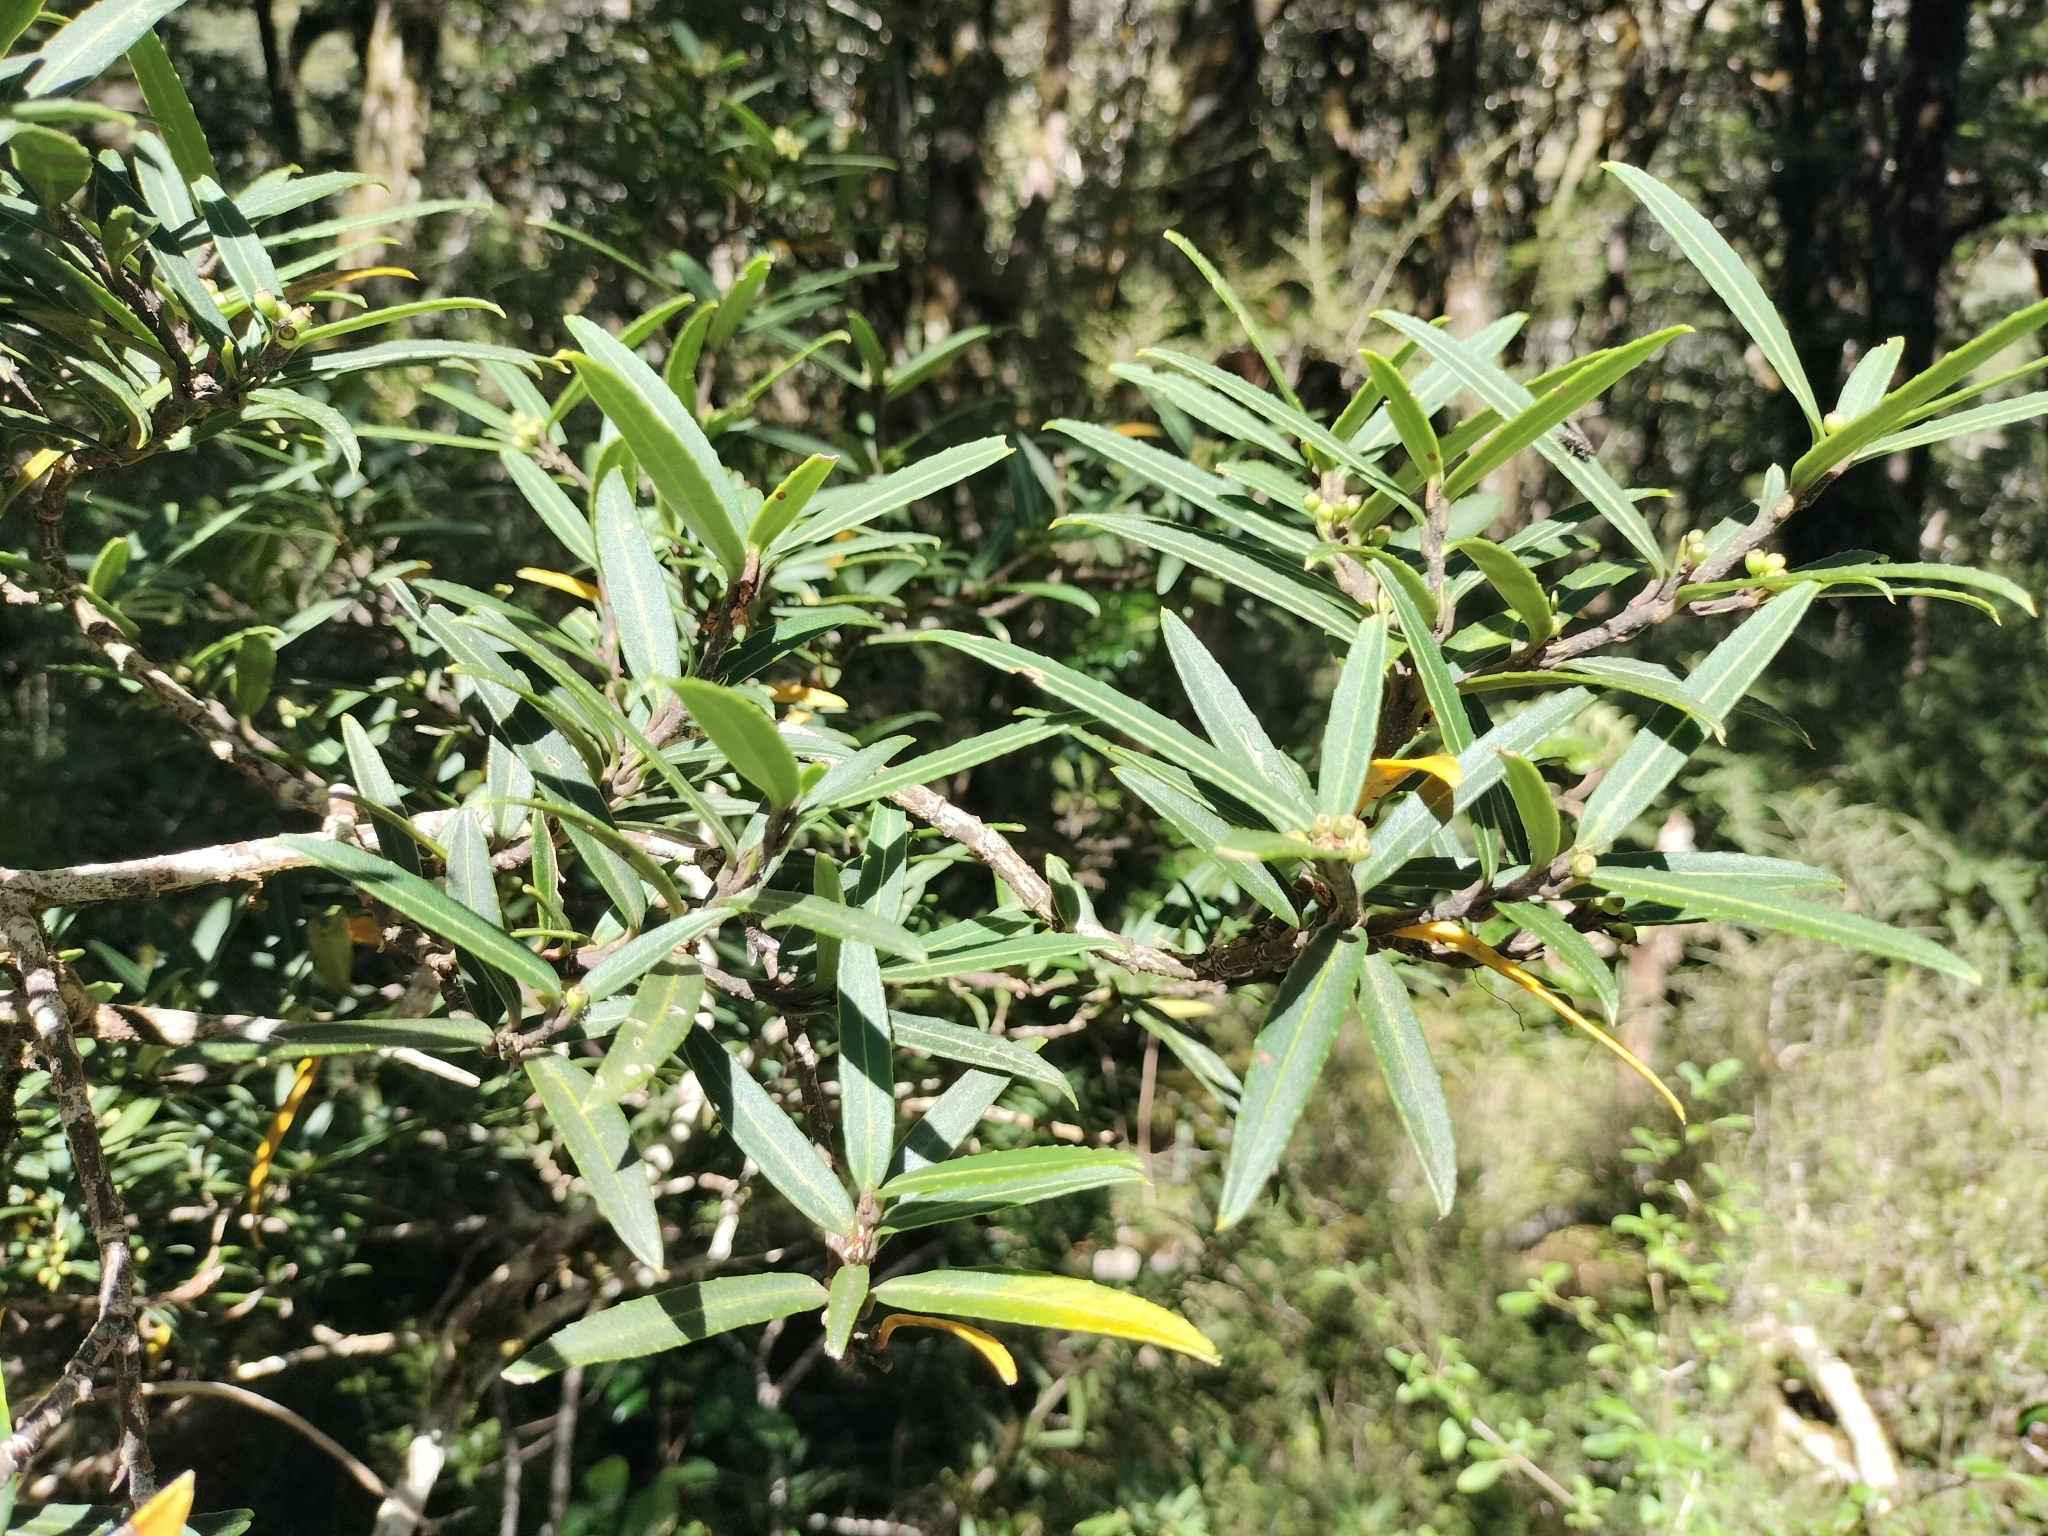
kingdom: Plantae
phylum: Tracheophyta
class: Magnoliopsida
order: Apiales
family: Araliaceae
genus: Pseudopanax
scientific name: Pseudopanax linearis
